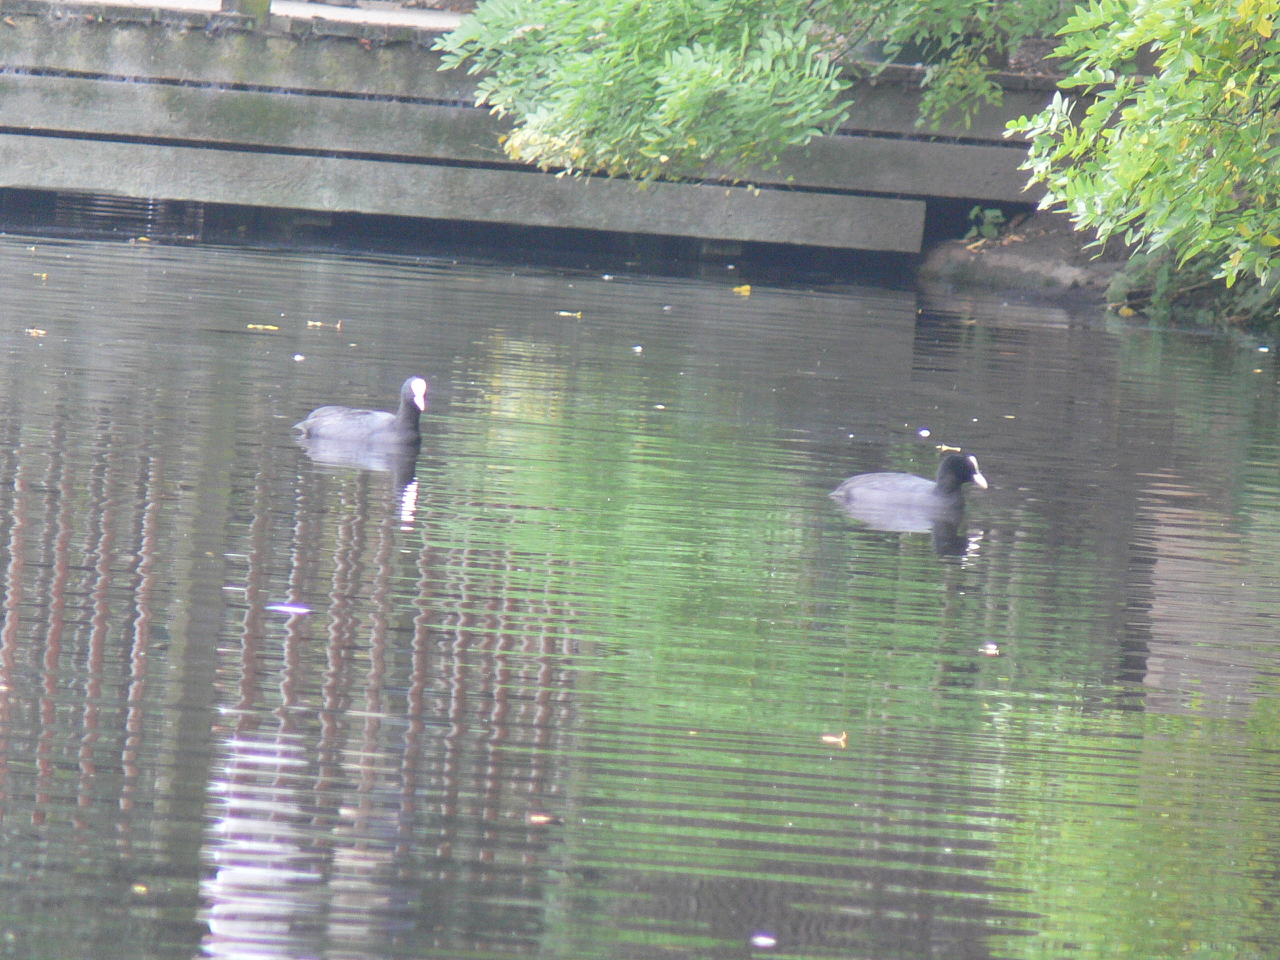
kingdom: Animalia
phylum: Chordata
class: Aves
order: Gruiformes
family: Rallidae
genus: Fulica
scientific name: Fulica atra
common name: Eurasian coot
